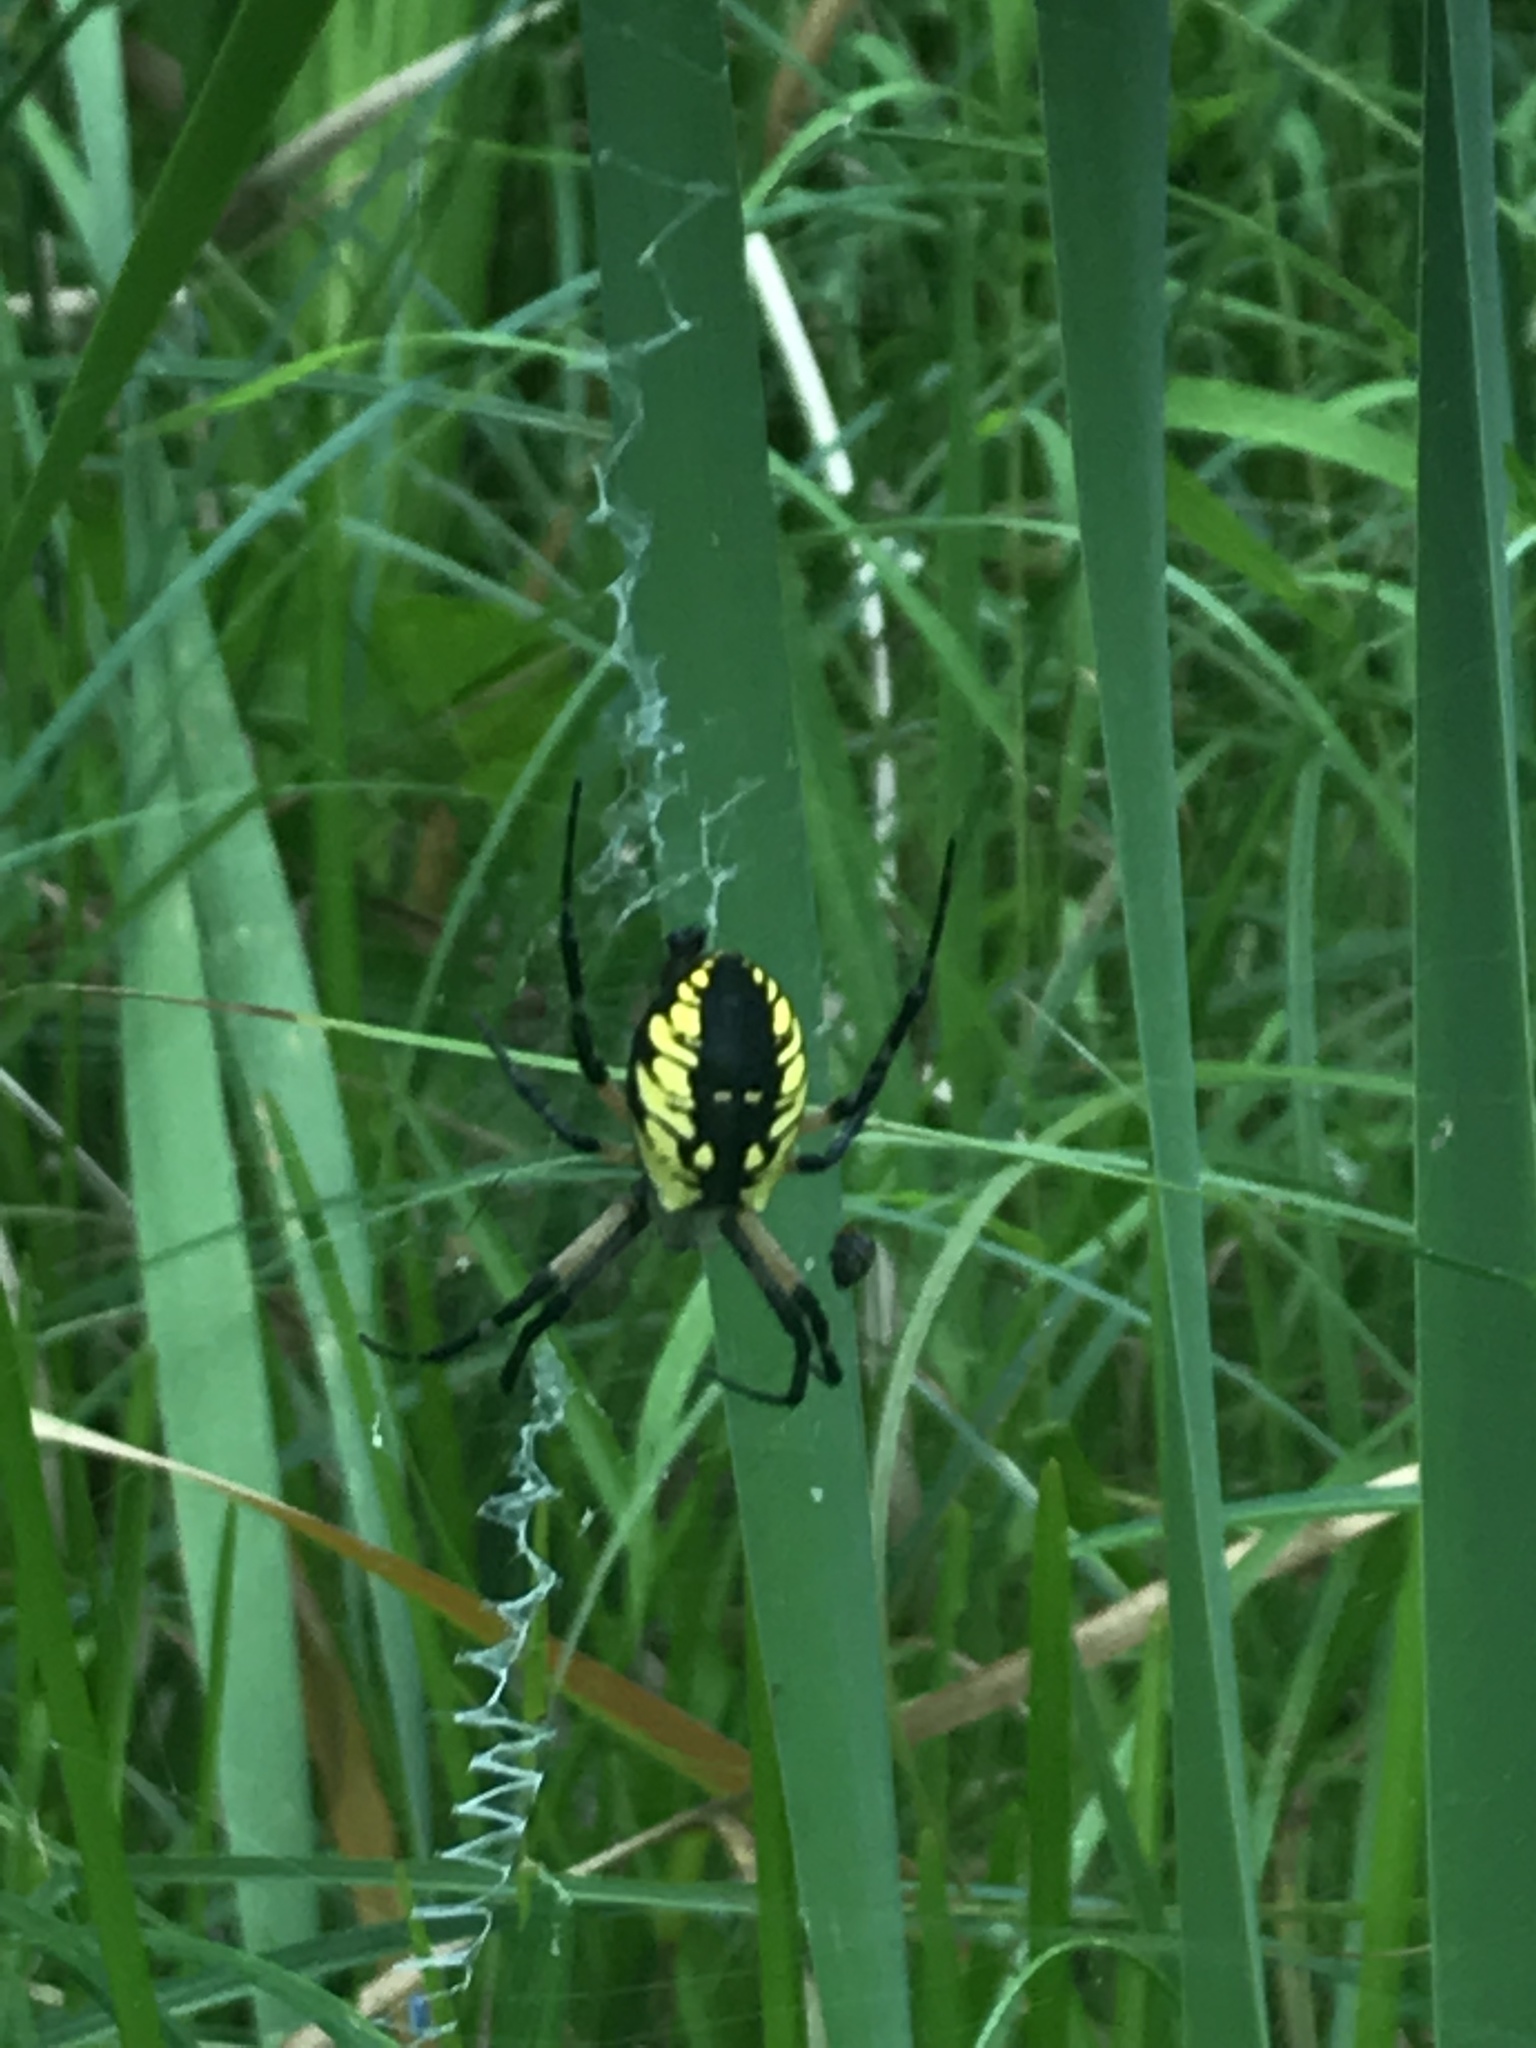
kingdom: Animalia
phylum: Arthropoda
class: Arachnida
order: Araneae
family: Araneidae
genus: Argiope
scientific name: Argiope aurantia
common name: Orb weavers
